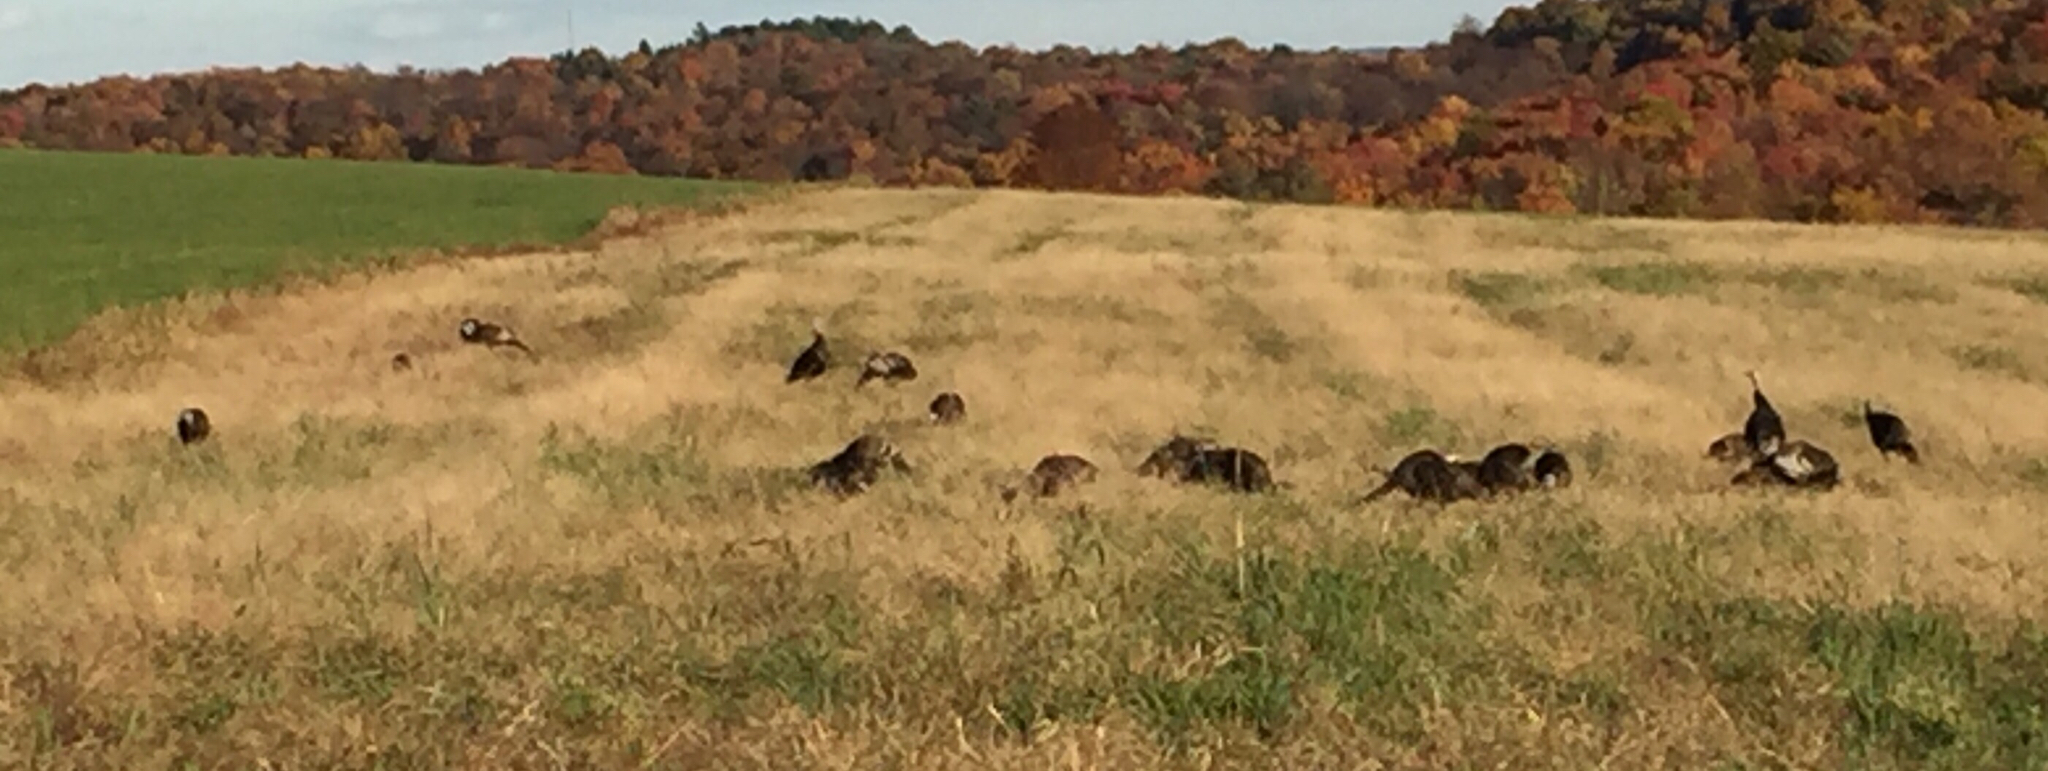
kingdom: Animalia
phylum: Chordata
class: Aves
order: Galliformes
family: Phasianidae
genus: Meleagris
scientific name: Meleagris gallopavo
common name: Wild turkey
